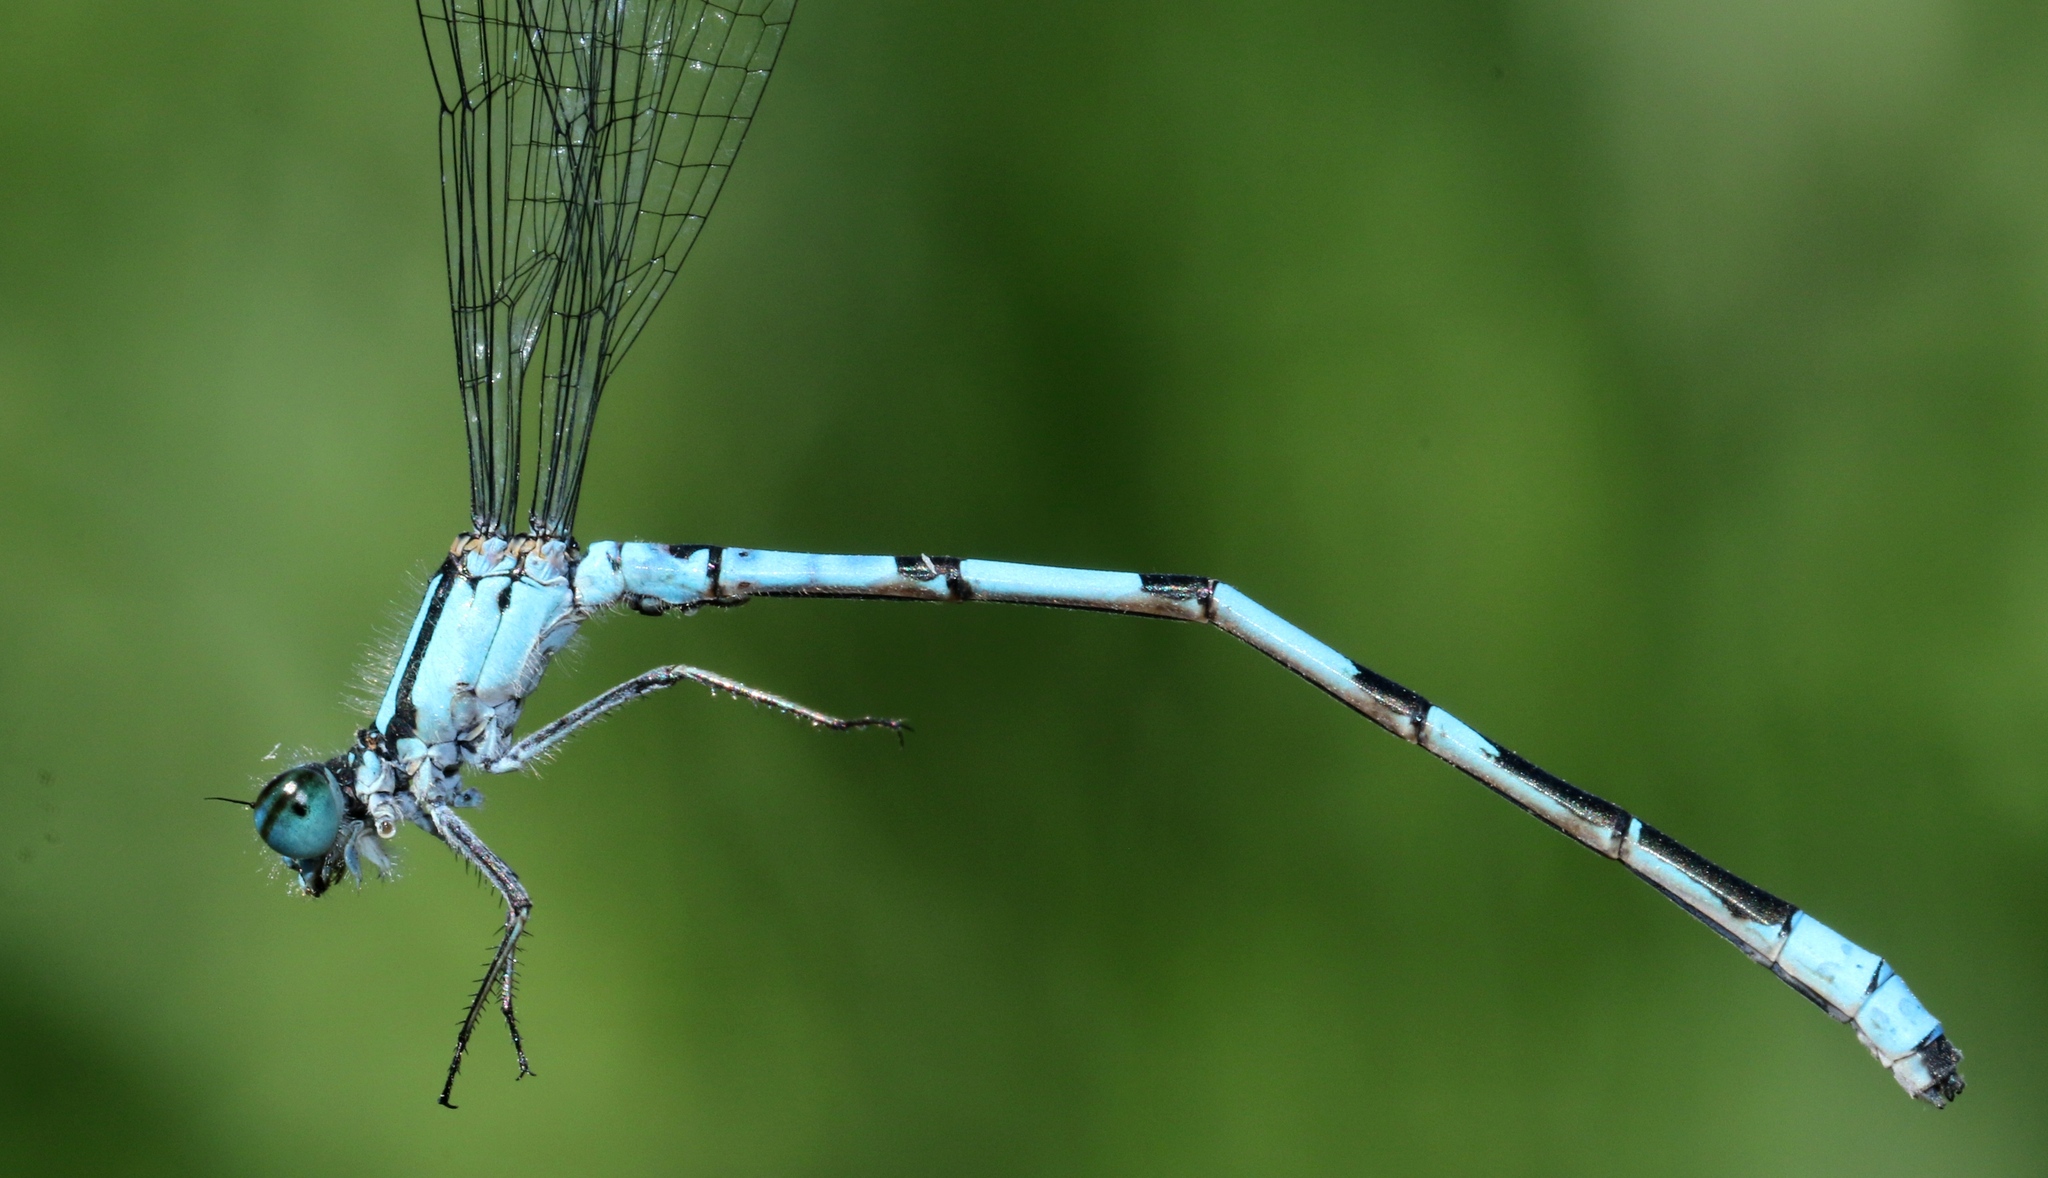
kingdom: Animalia
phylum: Arthropoda
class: Insecta
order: Odonata
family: Coenagrionidae
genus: Enallagma
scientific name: Enallagma ebrium
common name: Marsh bluet
